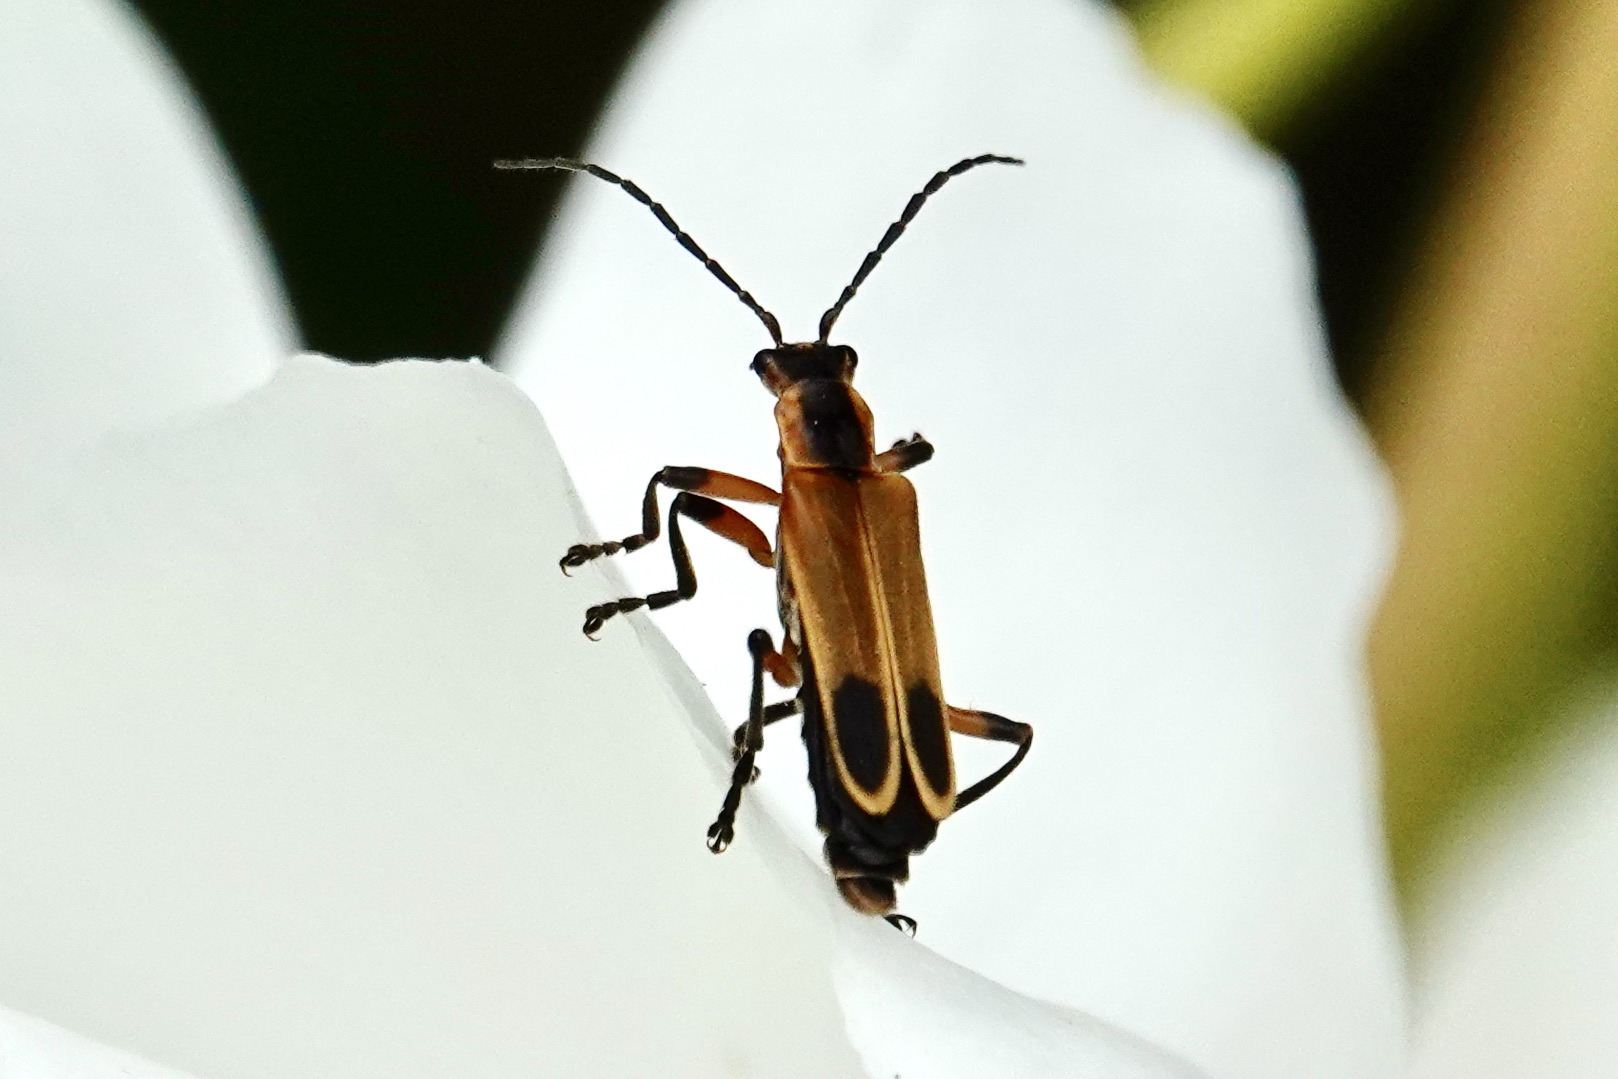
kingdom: Animalia
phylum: Arthropoda
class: Insecta
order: Coleoptera
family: Cantharidae
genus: Chauliognathus
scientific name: Chauliognathus marginatus
